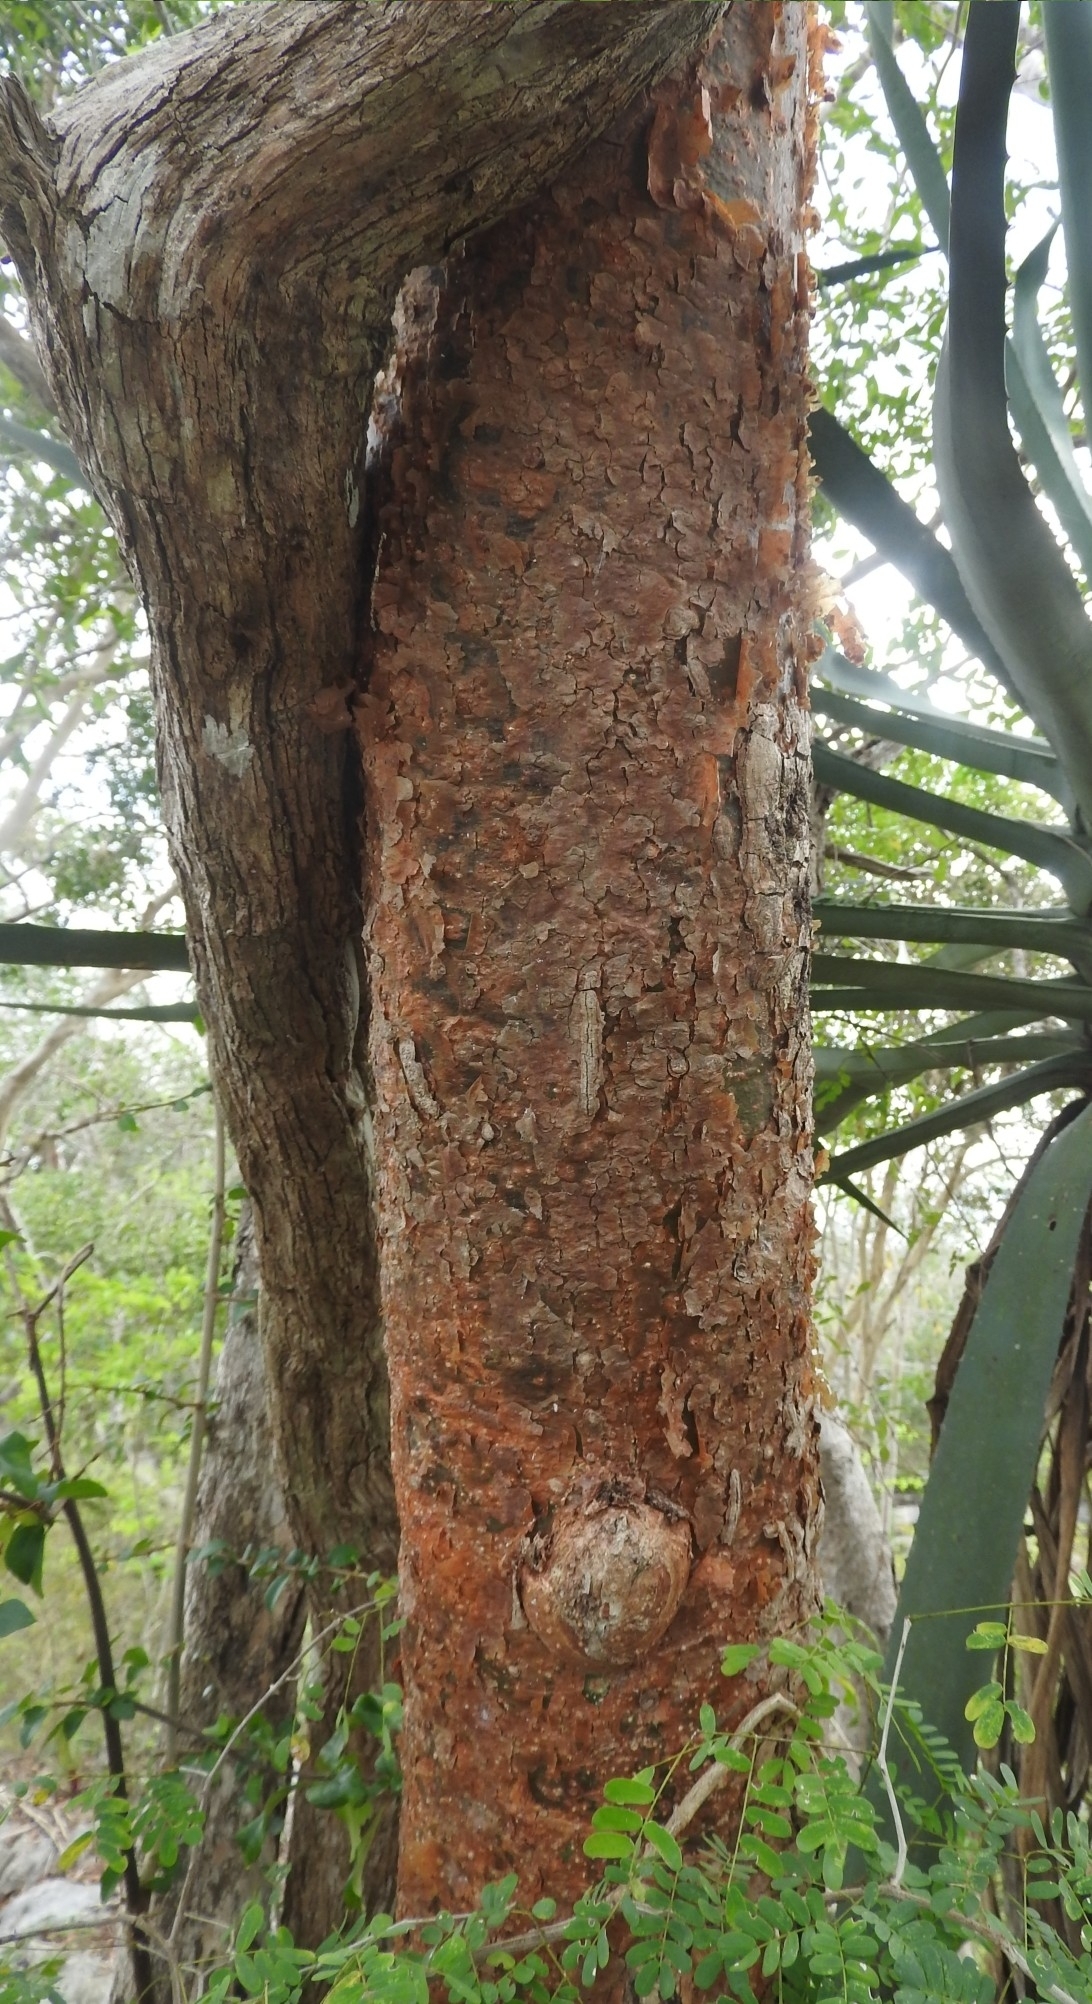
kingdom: Plantae
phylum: Tracheophyta
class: Magnoliopsida
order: Sapindales
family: Burseraceae
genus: Bursera
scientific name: Bursera simaruba
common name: Turpentine tree
